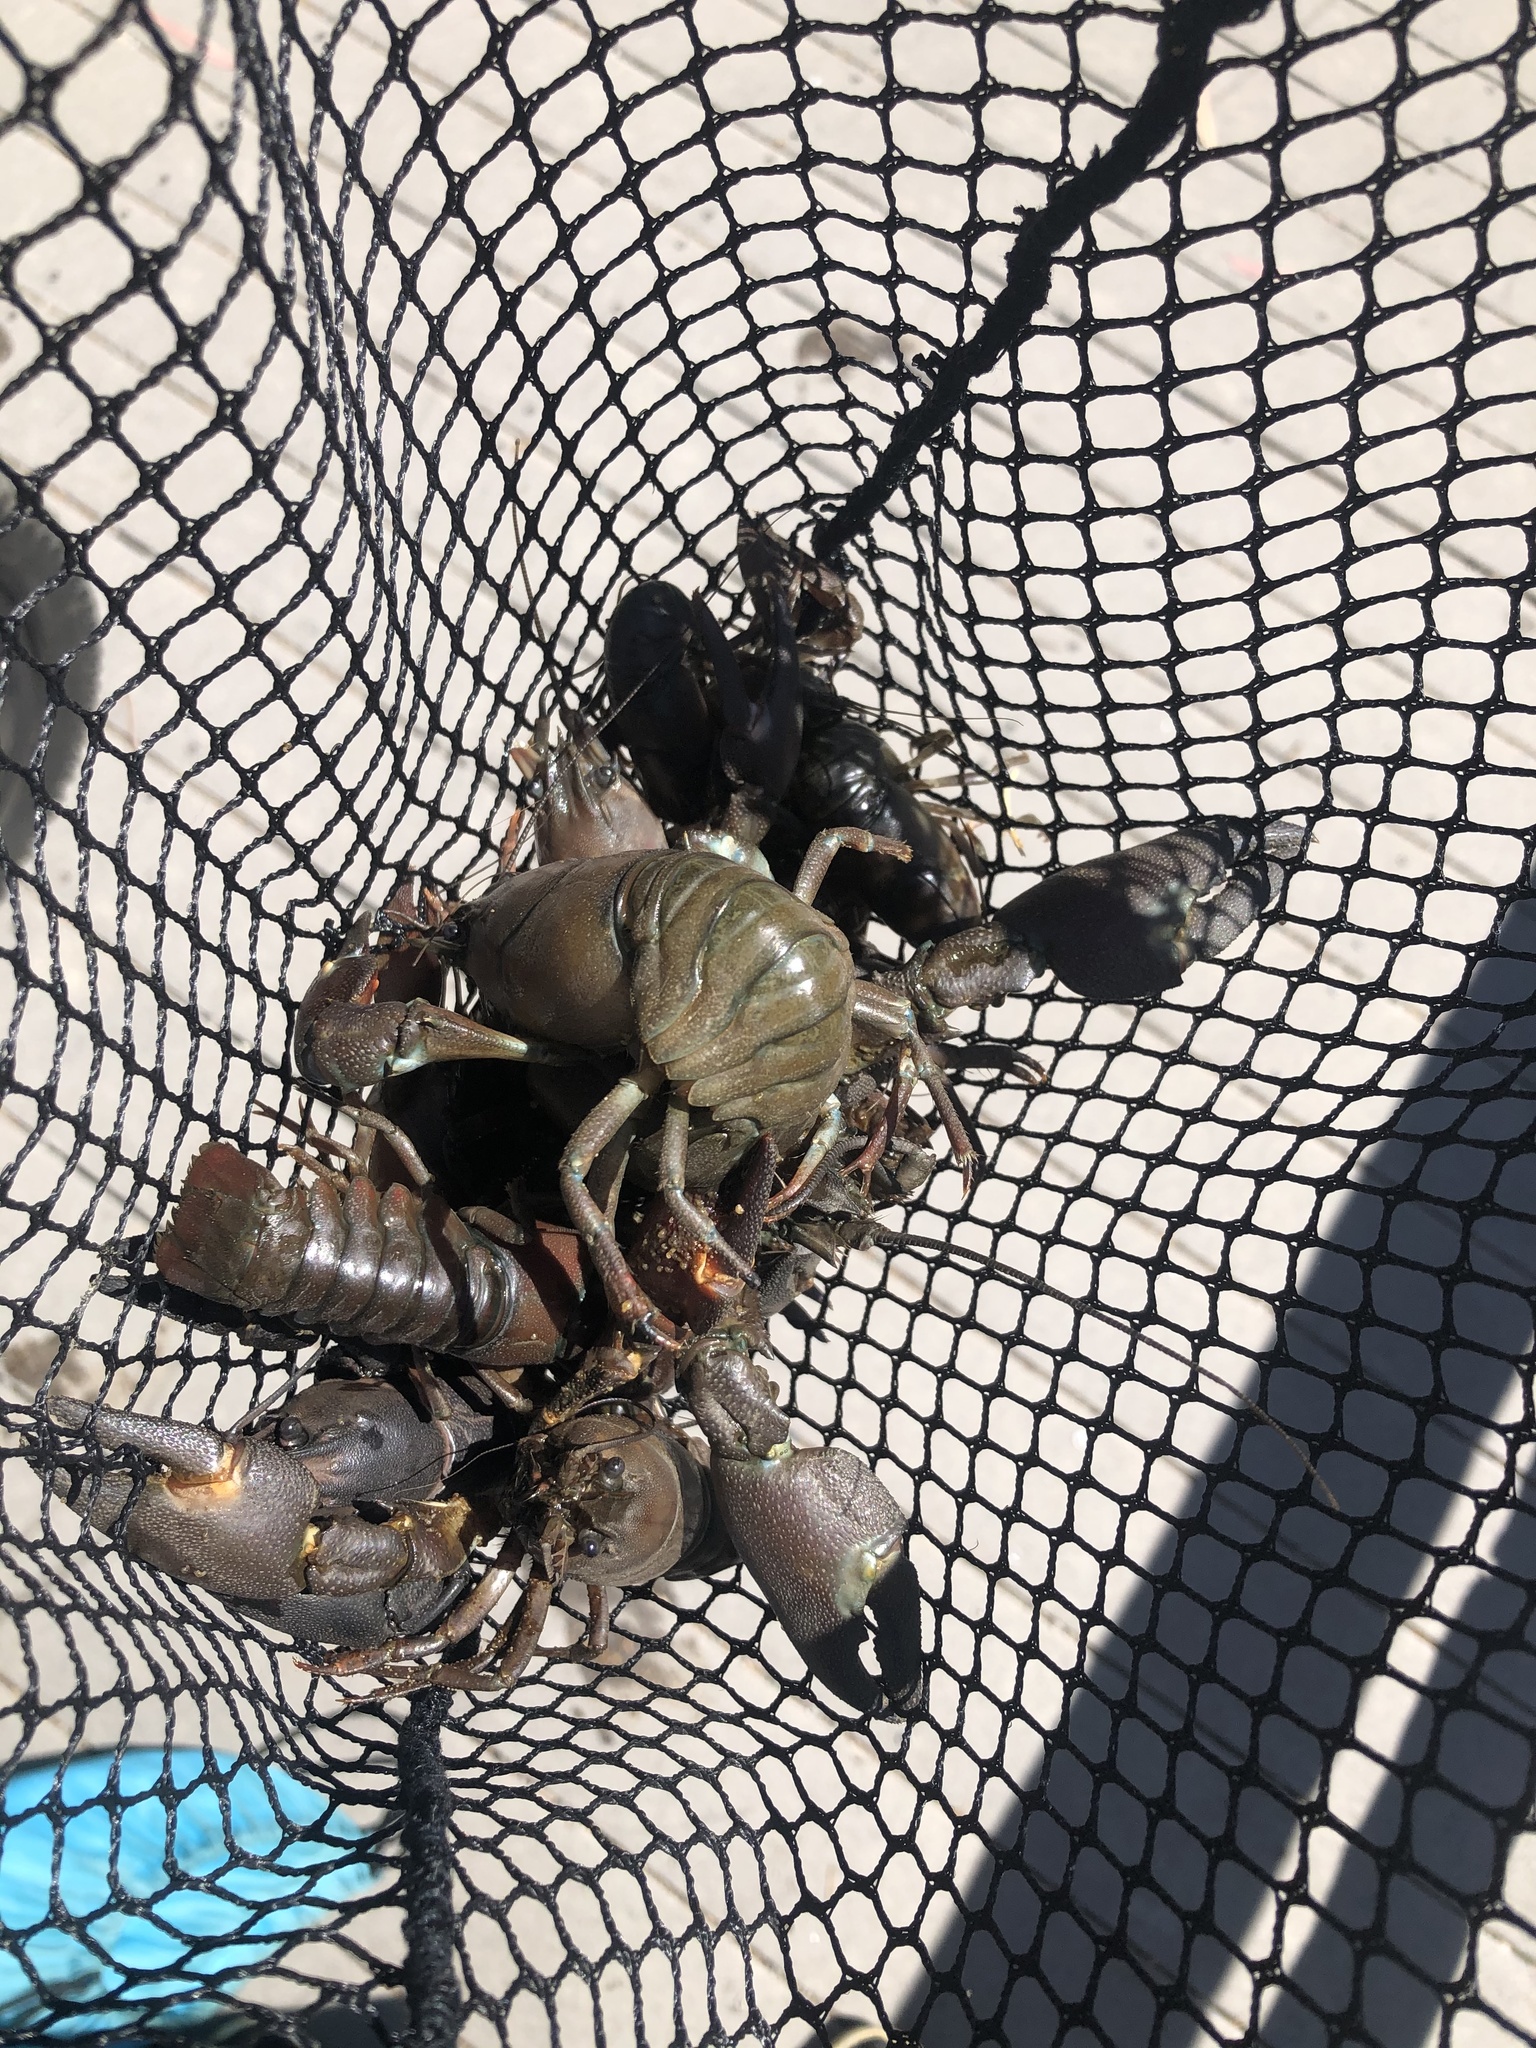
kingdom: Animalia
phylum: Arthropoda
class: Malacostraca
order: Decapoda
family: Astacidae
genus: Pacifastacus
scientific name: Pacifastacus leniusculus
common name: Signal crayfish
